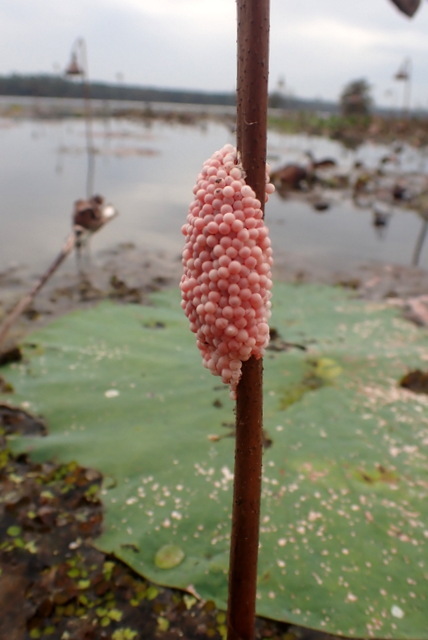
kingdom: Animalia
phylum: Mollusca
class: Gastropoda
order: Architaenioglossa
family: Ampullariidae
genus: Pomacea
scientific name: Pomacea maculata
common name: Giant applesnail
